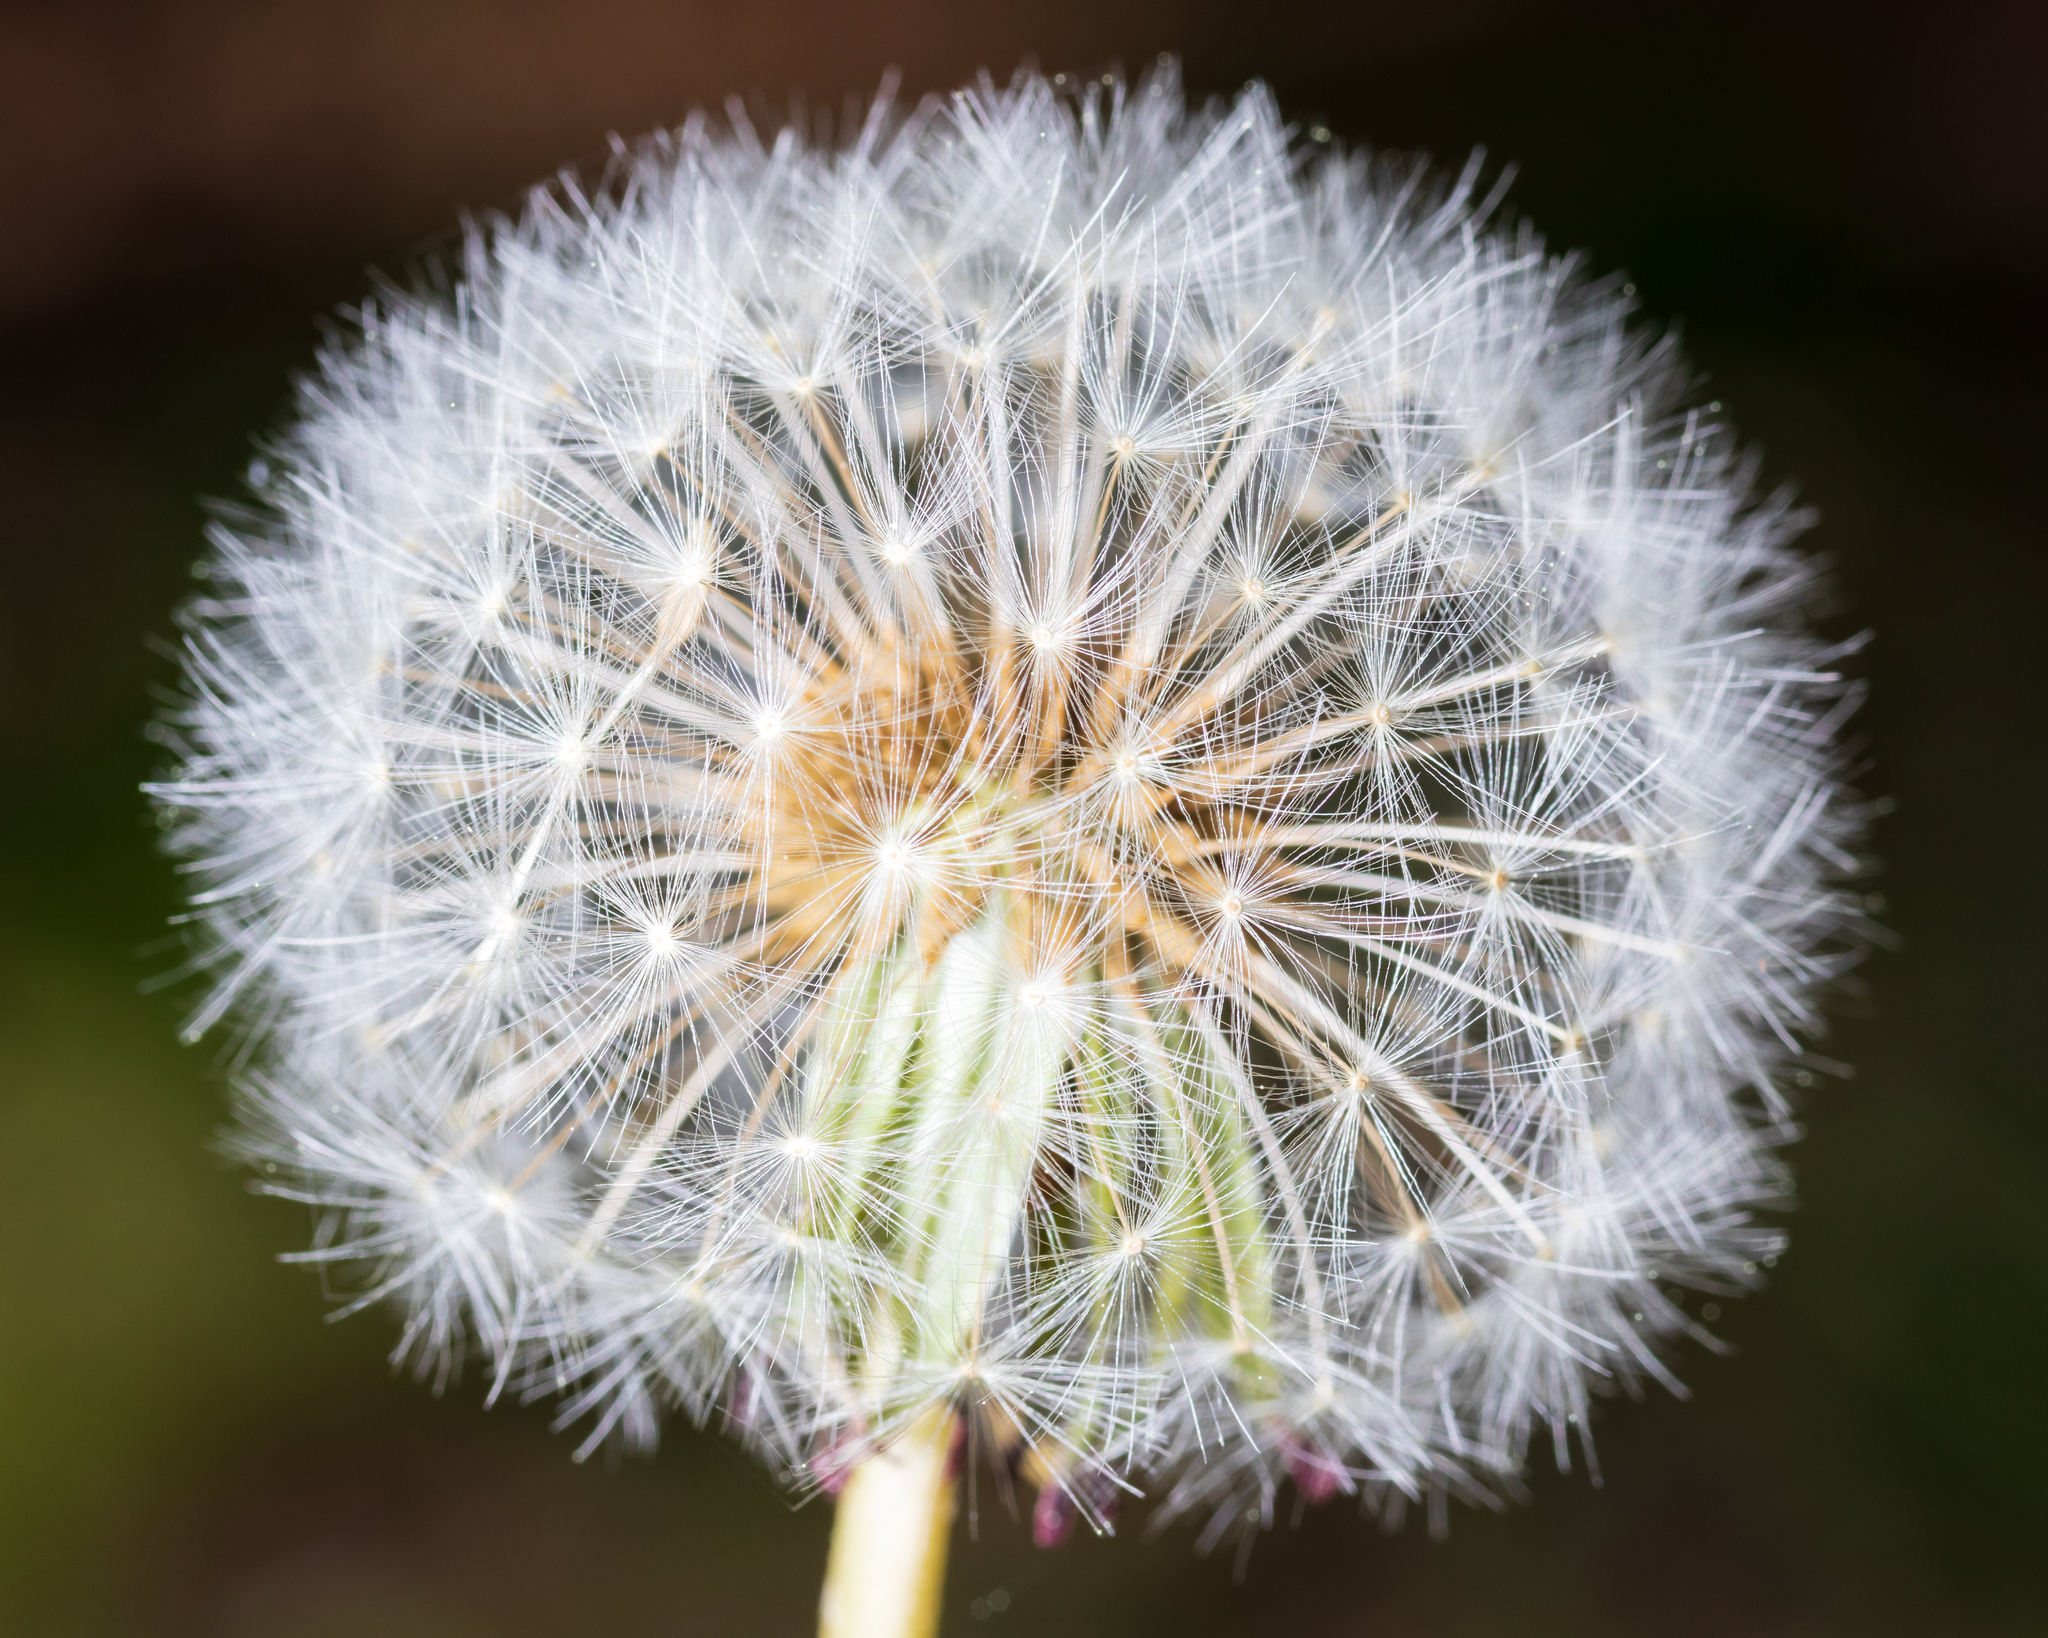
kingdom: Plantae
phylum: Tracheophyta
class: Magnoliopsida
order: Asterales
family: Asteraceae
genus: Taraxacum
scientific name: Taraxacum officinale
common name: Common dandelion
